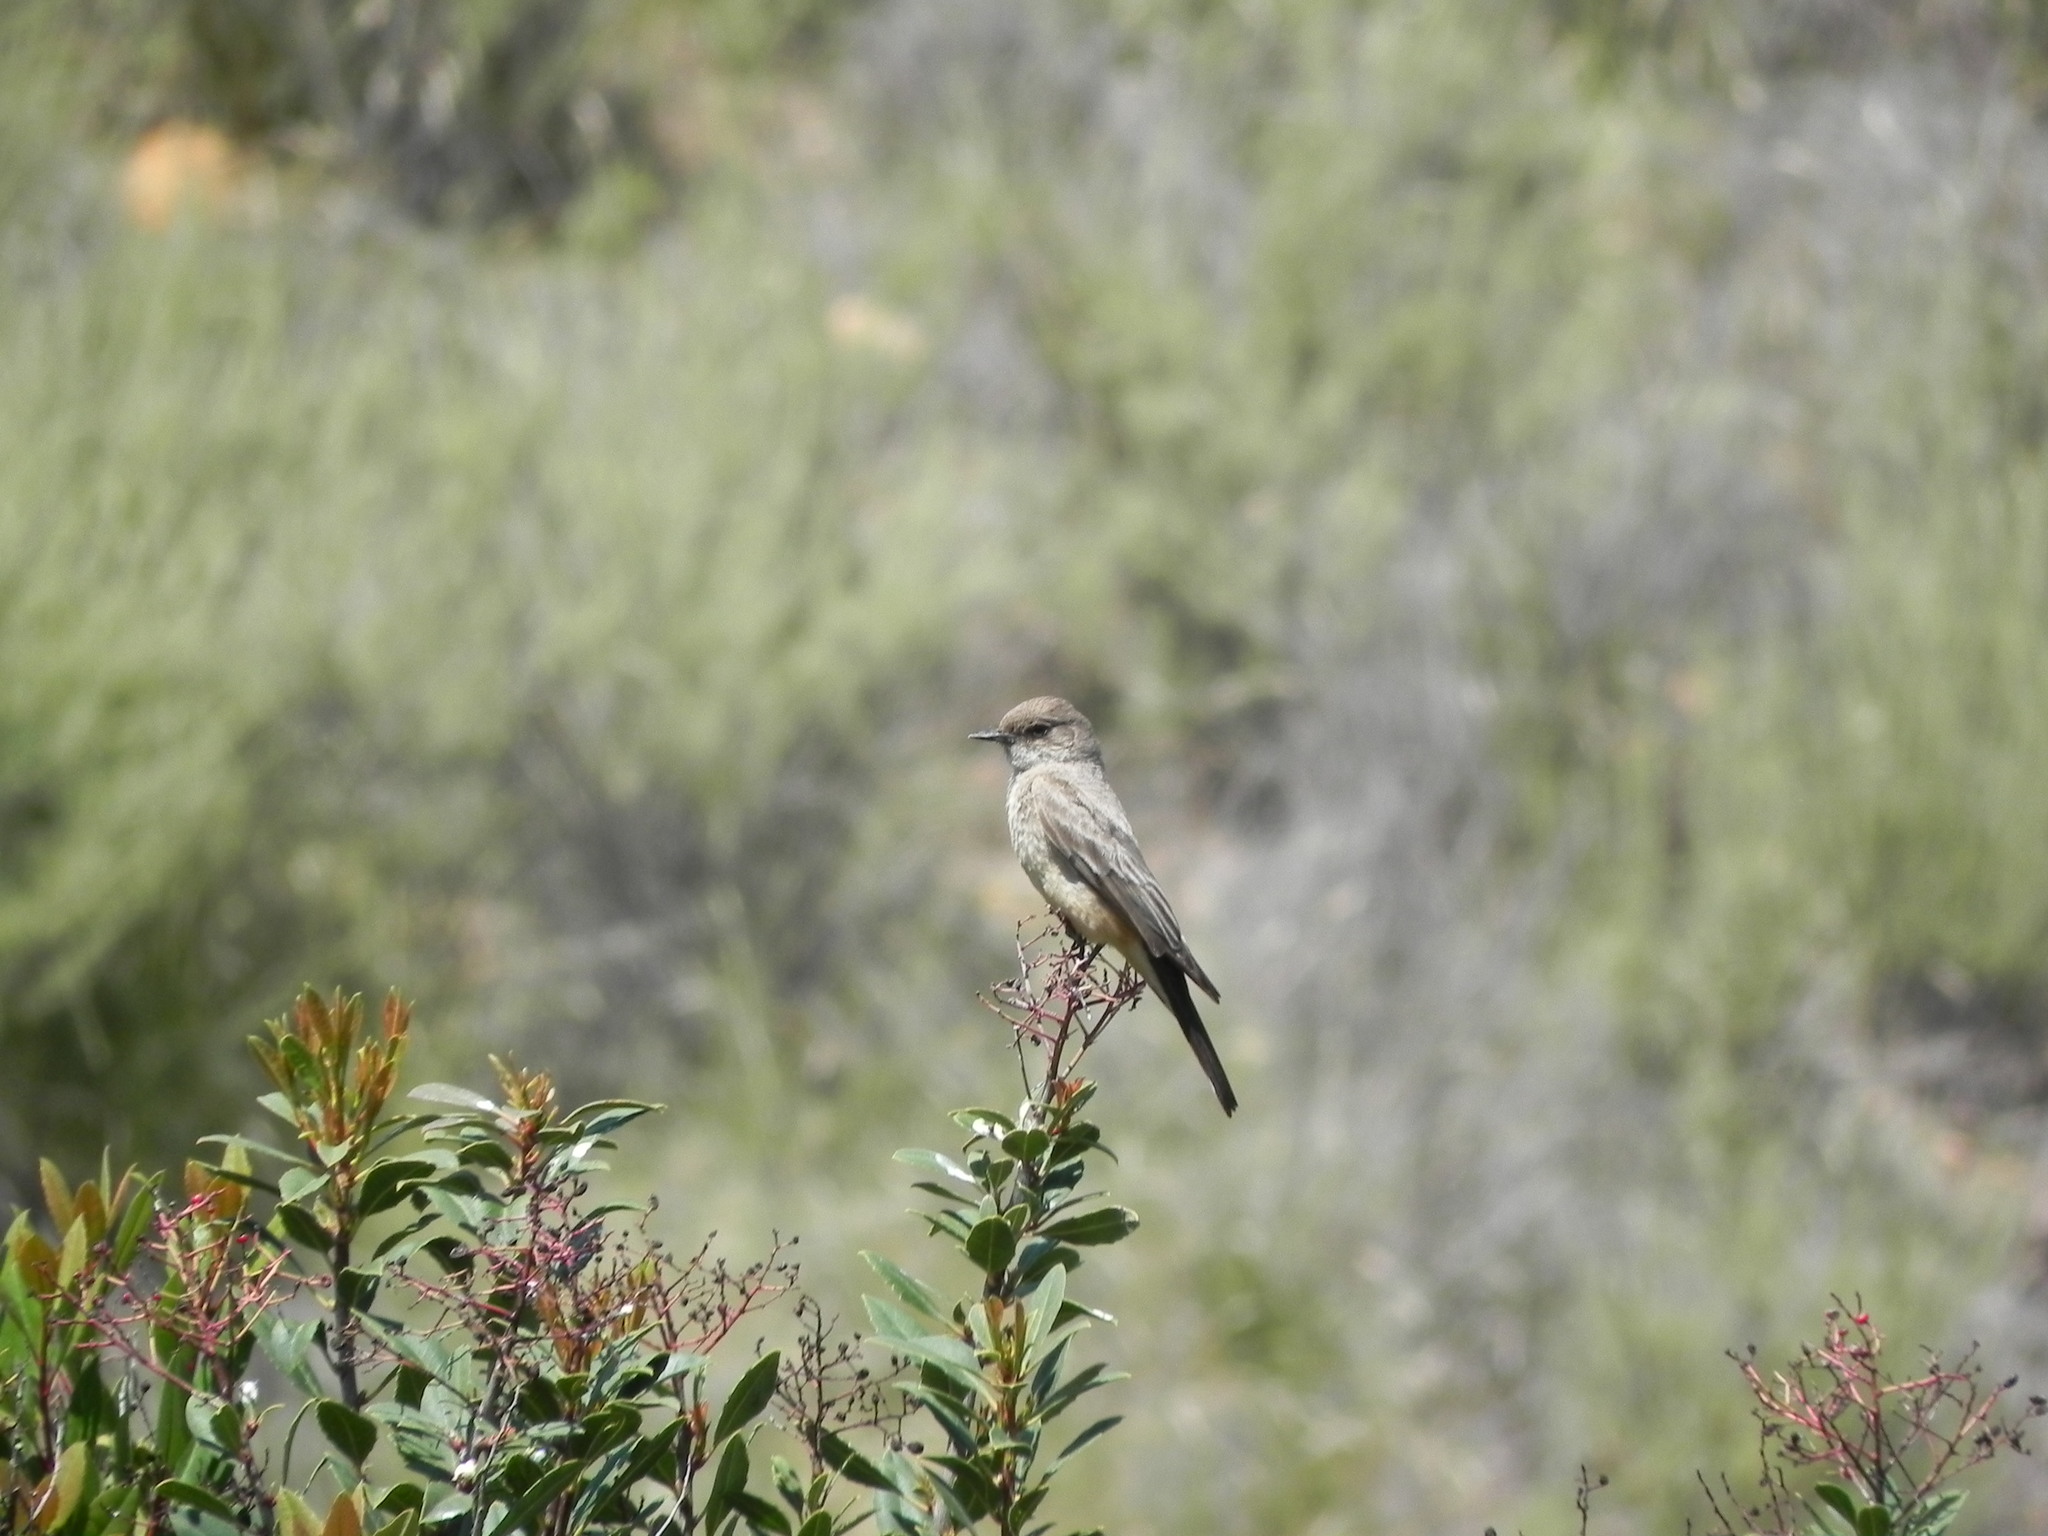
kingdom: Animalia
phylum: Chordata
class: Aves
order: Passeriformes
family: Tyrannidae
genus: Sayornis
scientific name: Sayornis saya
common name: Say's phoebe
